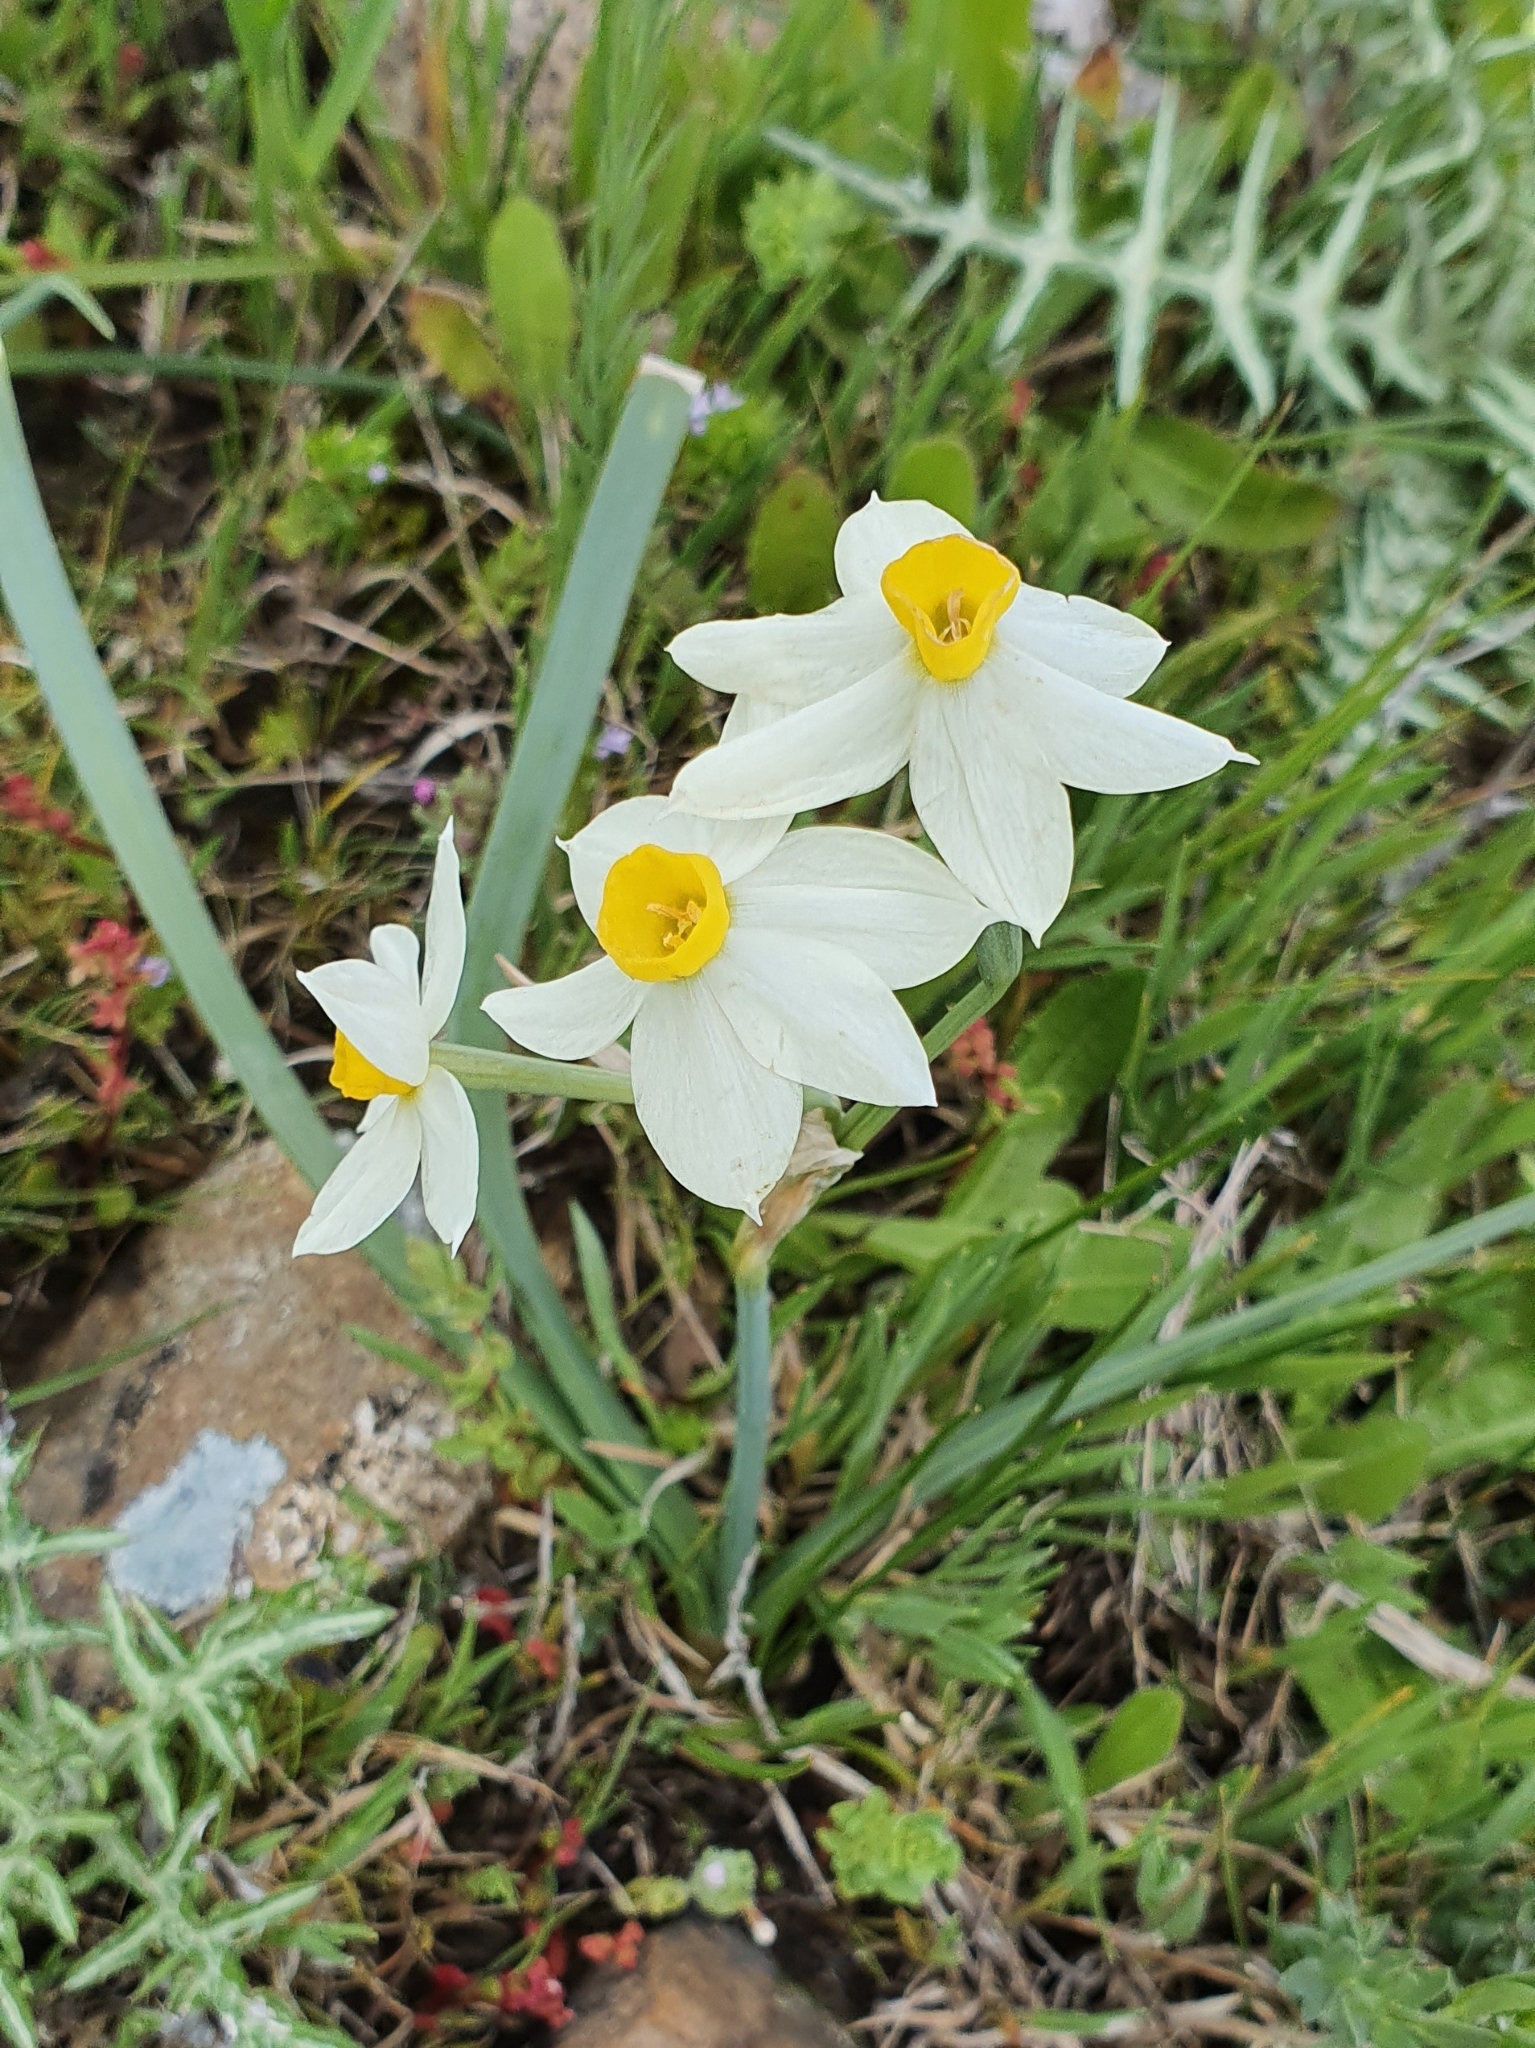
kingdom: Plantae
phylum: Tracheophyta
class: Liliopsida
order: Asparagales
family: Amaryllidaceae
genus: Narcissus
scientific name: Narcissus tazetta
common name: Bunch-flowered daffodil
